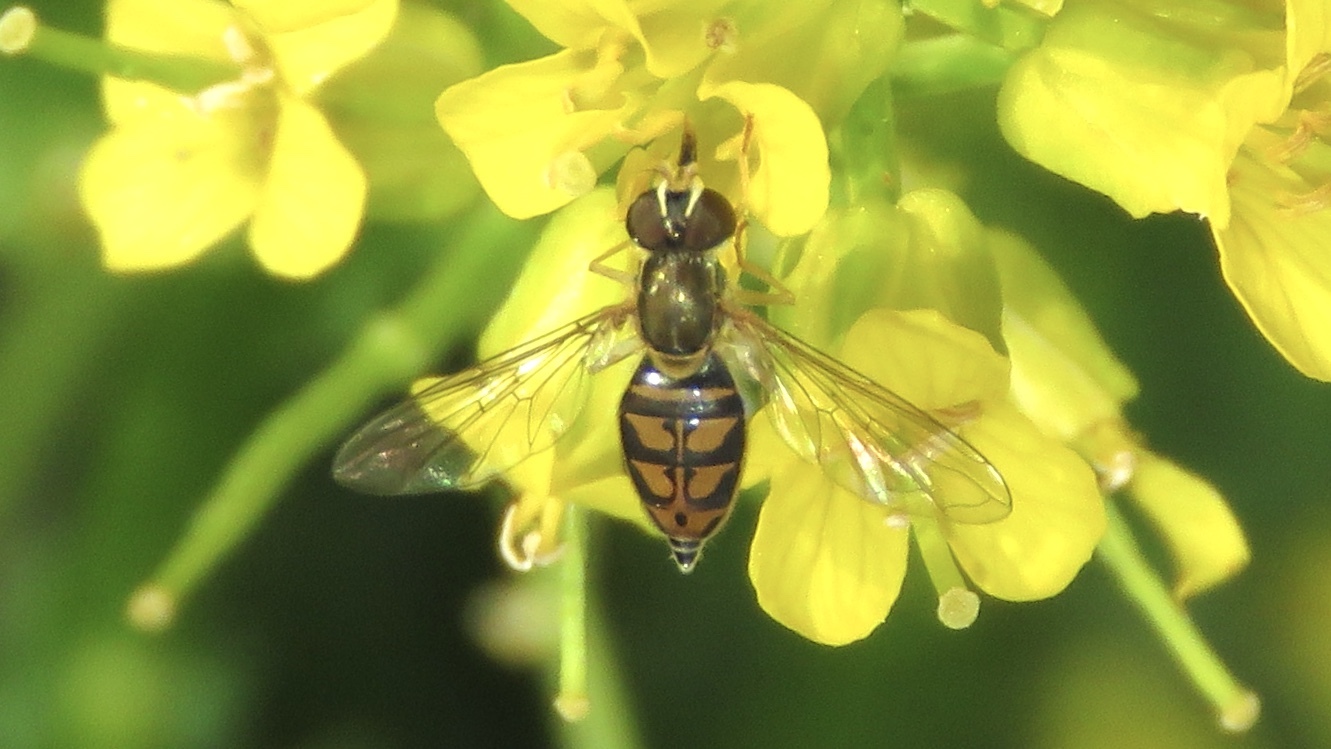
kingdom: Animalia
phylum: Arthropoda
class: Insecta
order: Diptera
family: Syrphidae
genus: Toxomerus
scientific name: Toxomerus marginatus
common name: Syrphid fly
